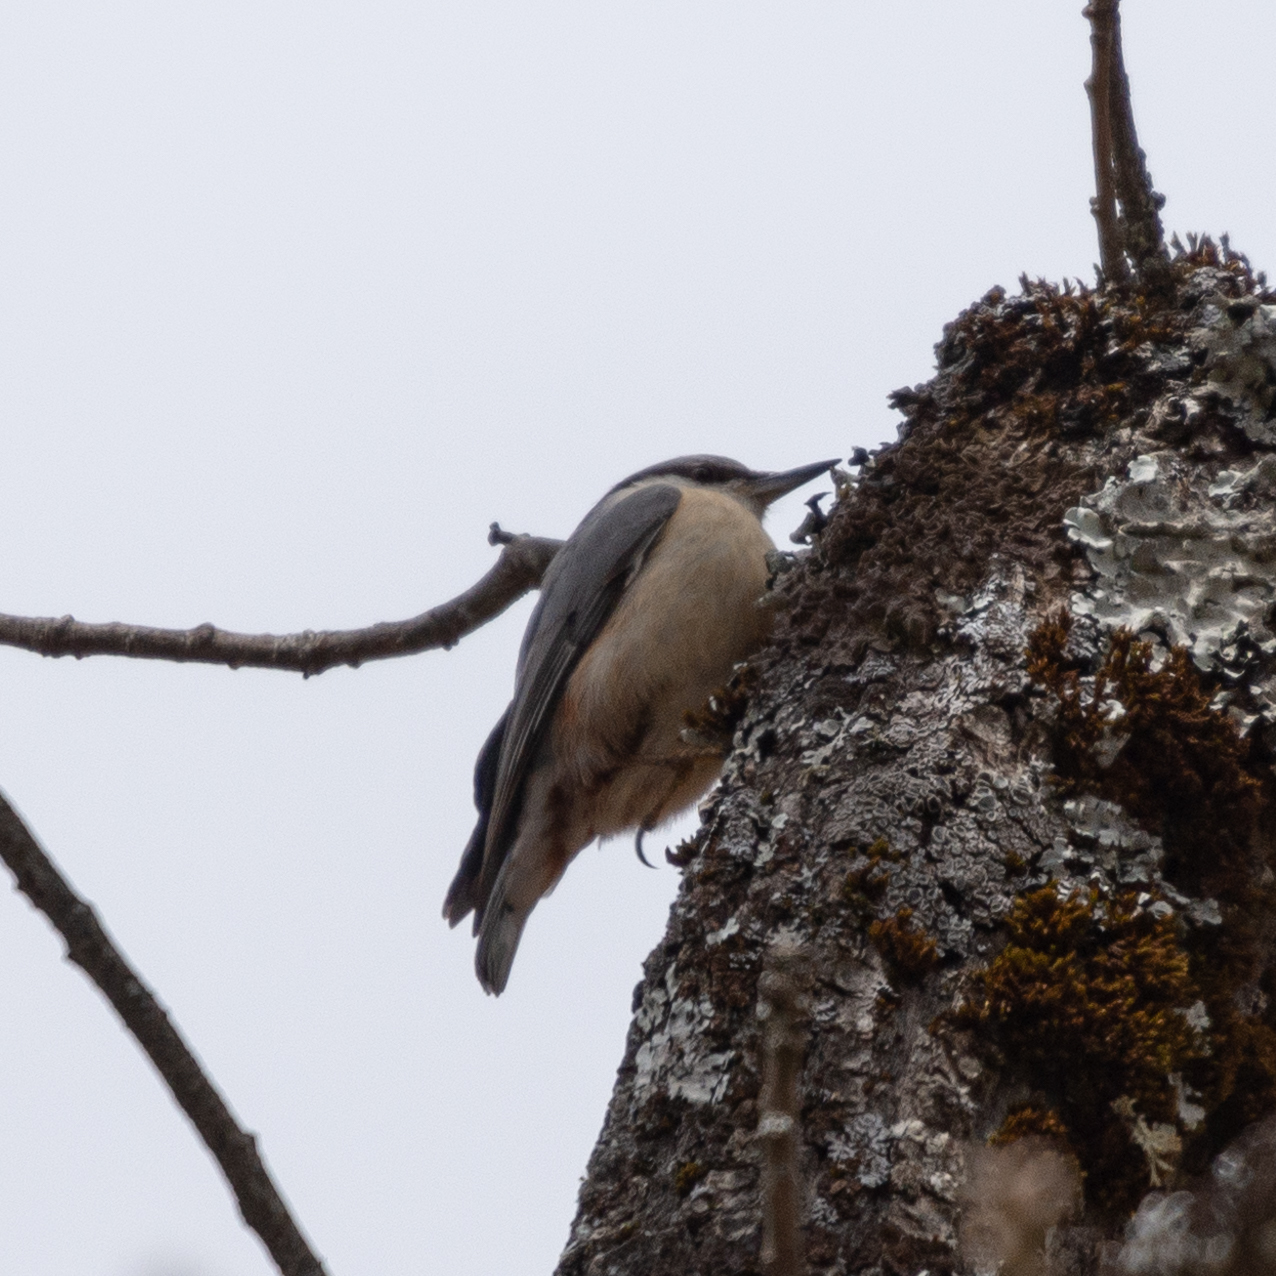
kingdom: Animalia
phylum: Chordata
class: Aves
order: Passeriformes
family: Sittidae
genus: Sitta
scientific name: Sitta europaea
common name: Eurasian nuthatch
